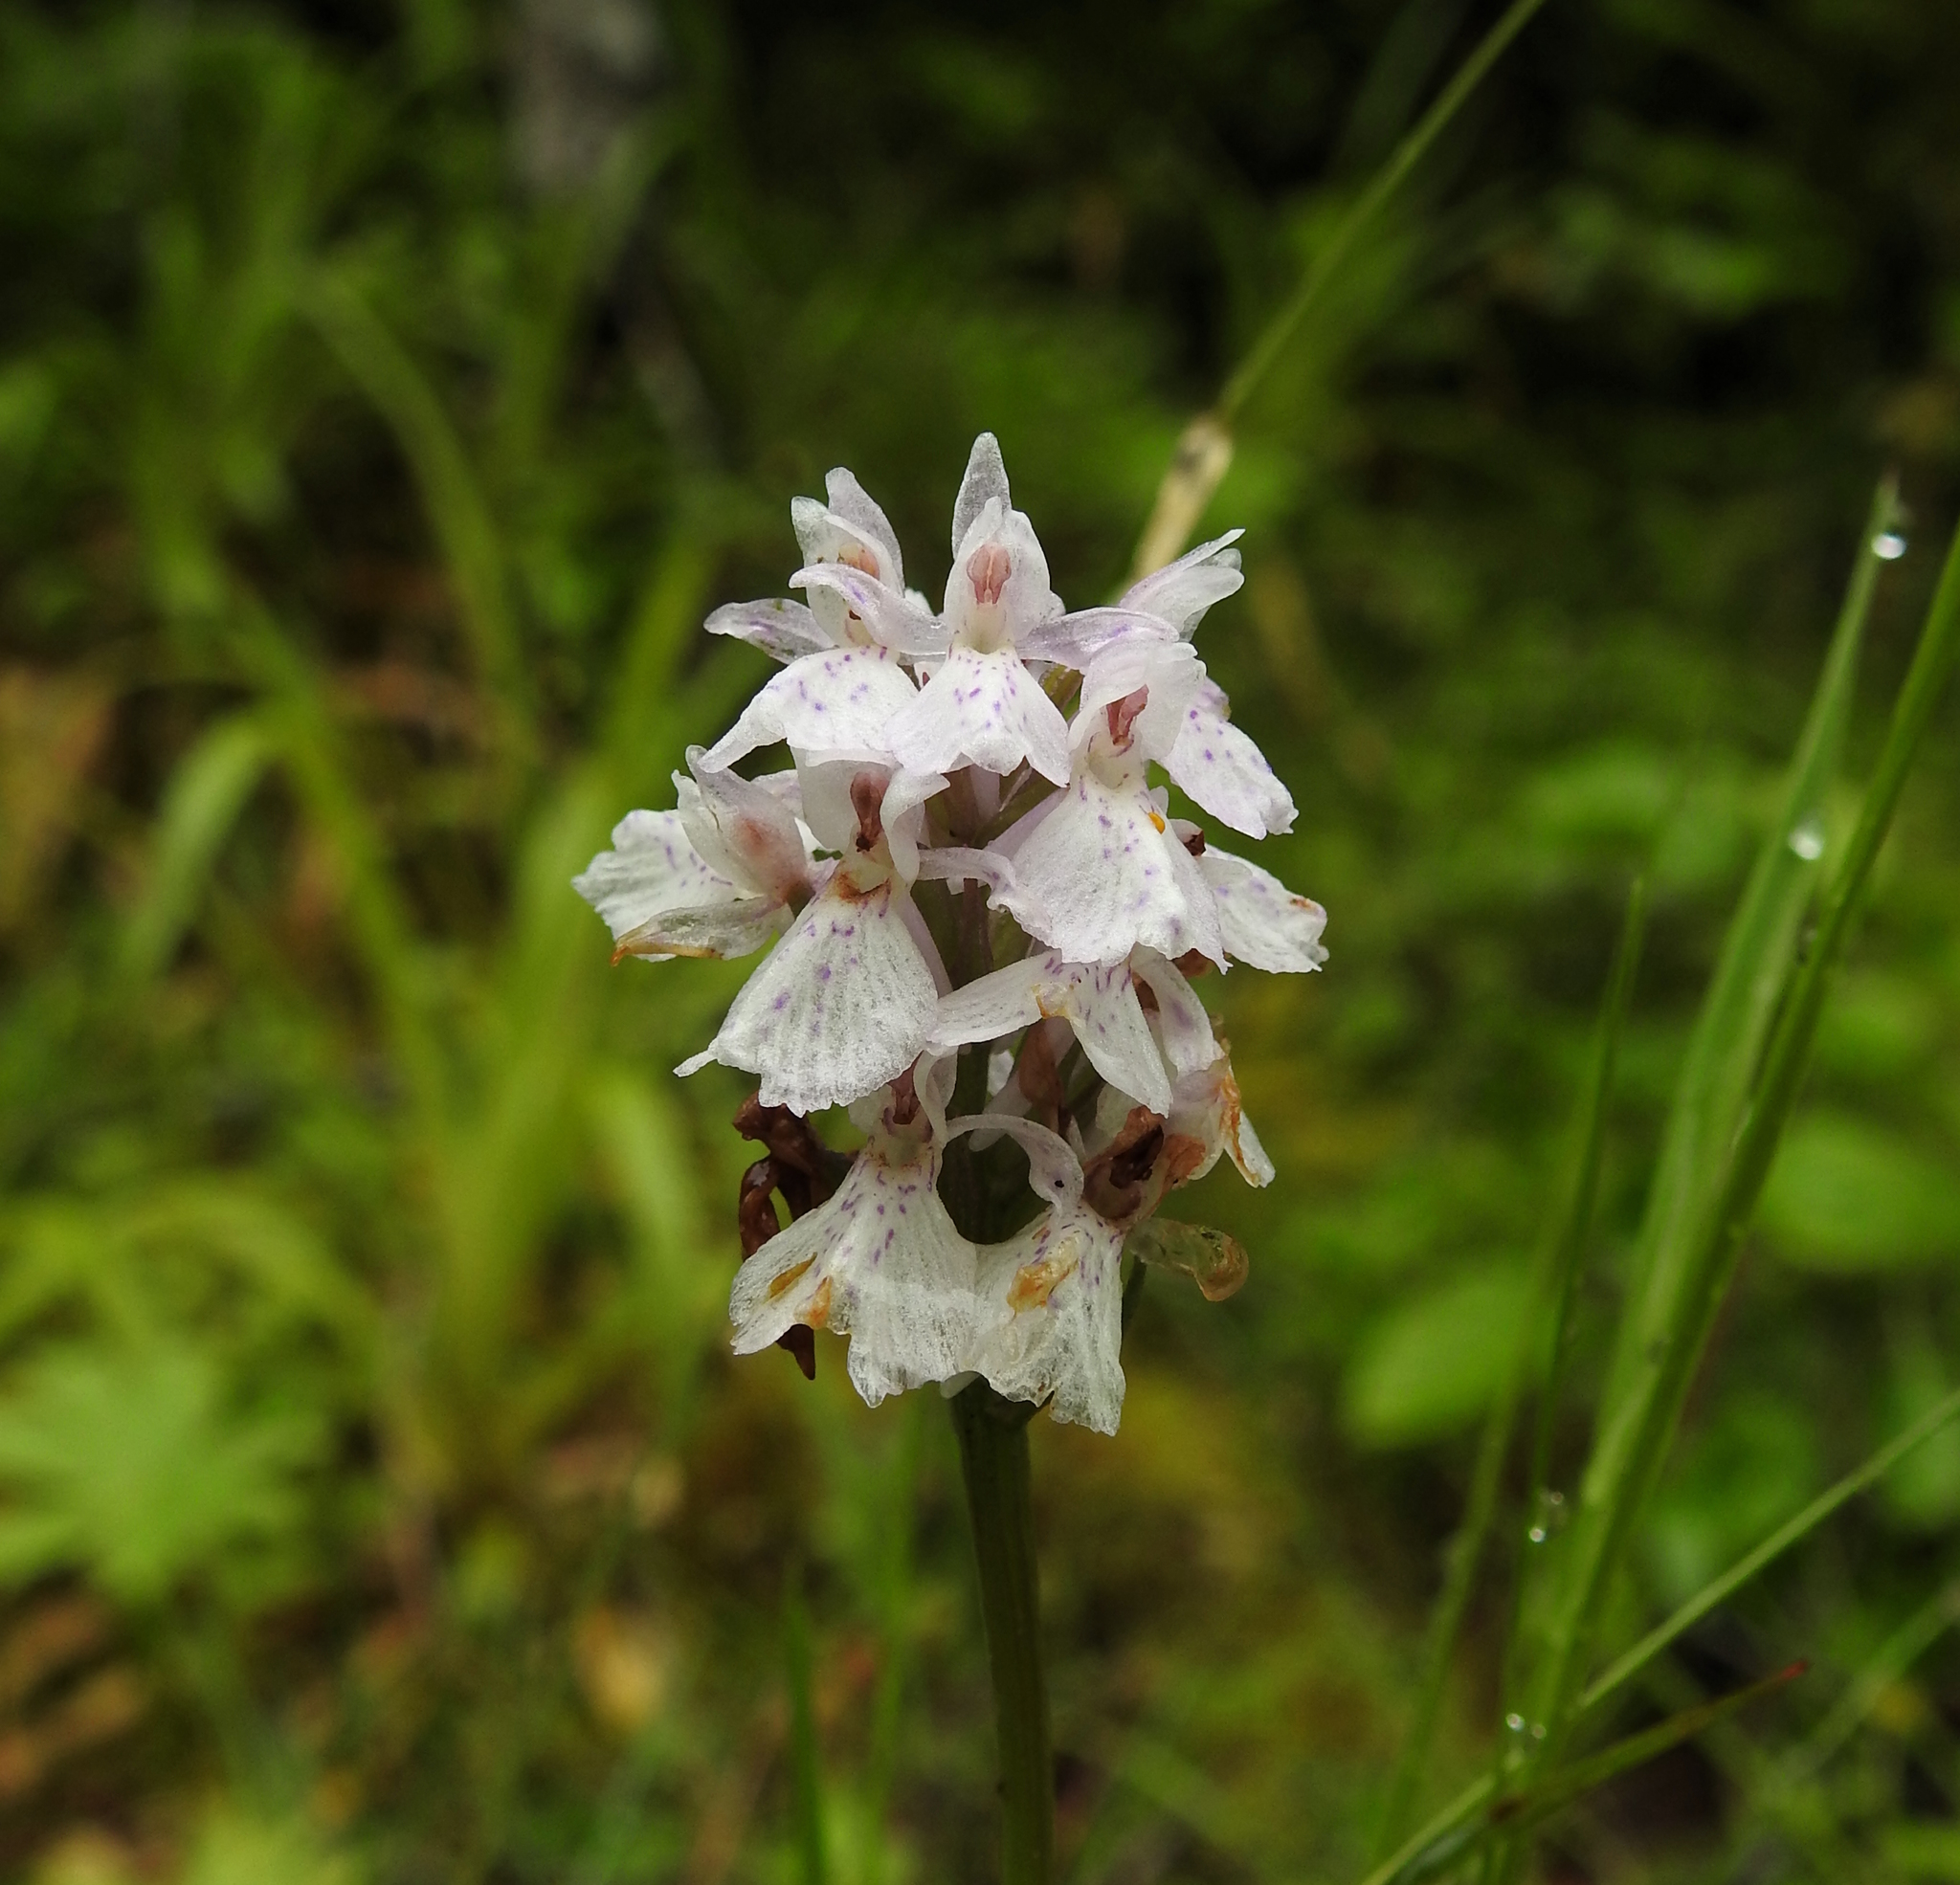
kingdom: Plantae
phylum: Tracheophyta
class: Liliopsida
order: Asparagales
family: Orchidaceae
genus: Dactylorhiza
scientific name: Dactylorhiza maculata
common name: Heath spotted-orchid
